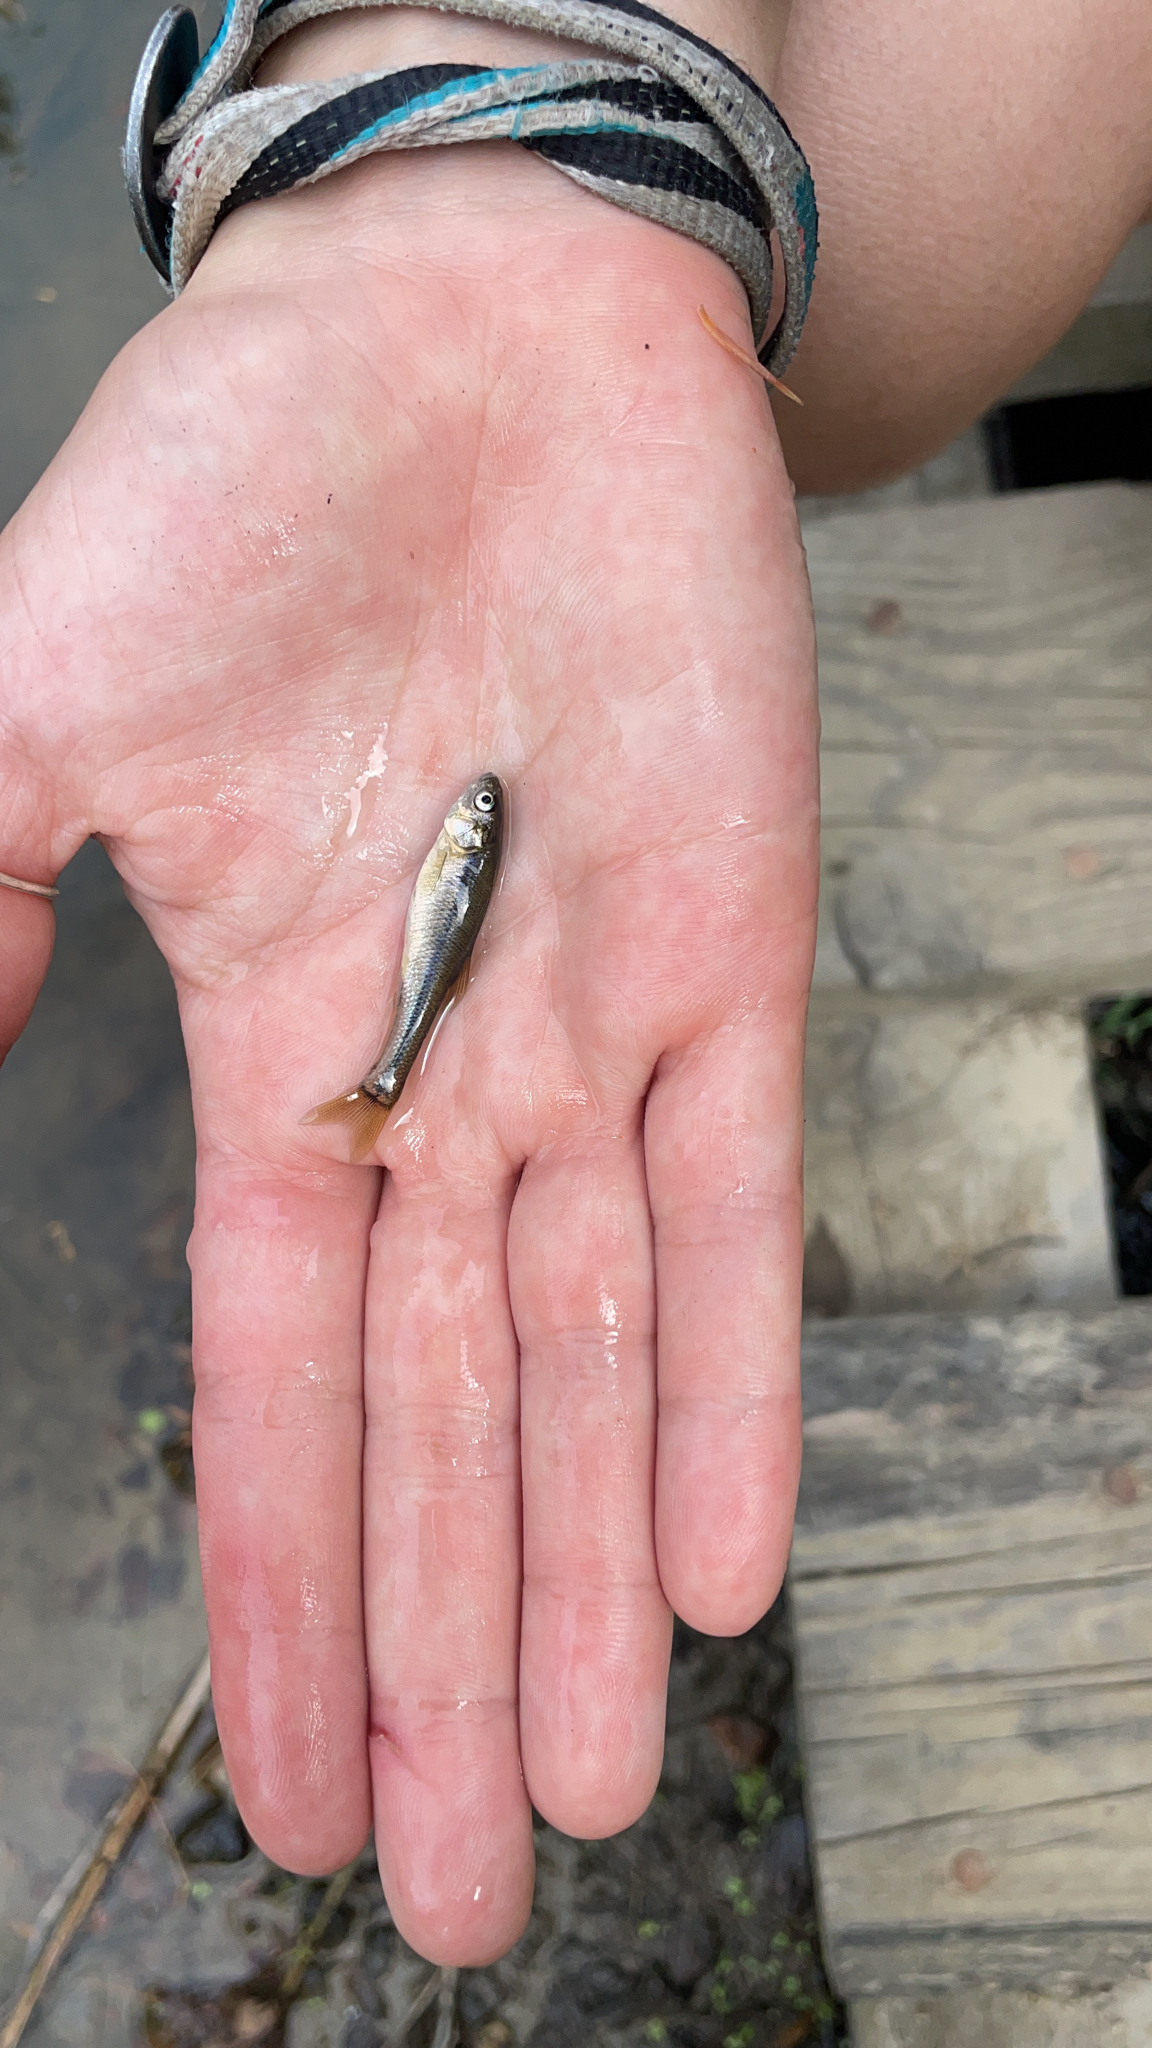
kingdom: Animalia
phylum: Chordata
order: Cypriniformes
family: Cyprinidae
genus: Pimephales
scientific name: Pimephales promelas
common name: Fathead minnow
